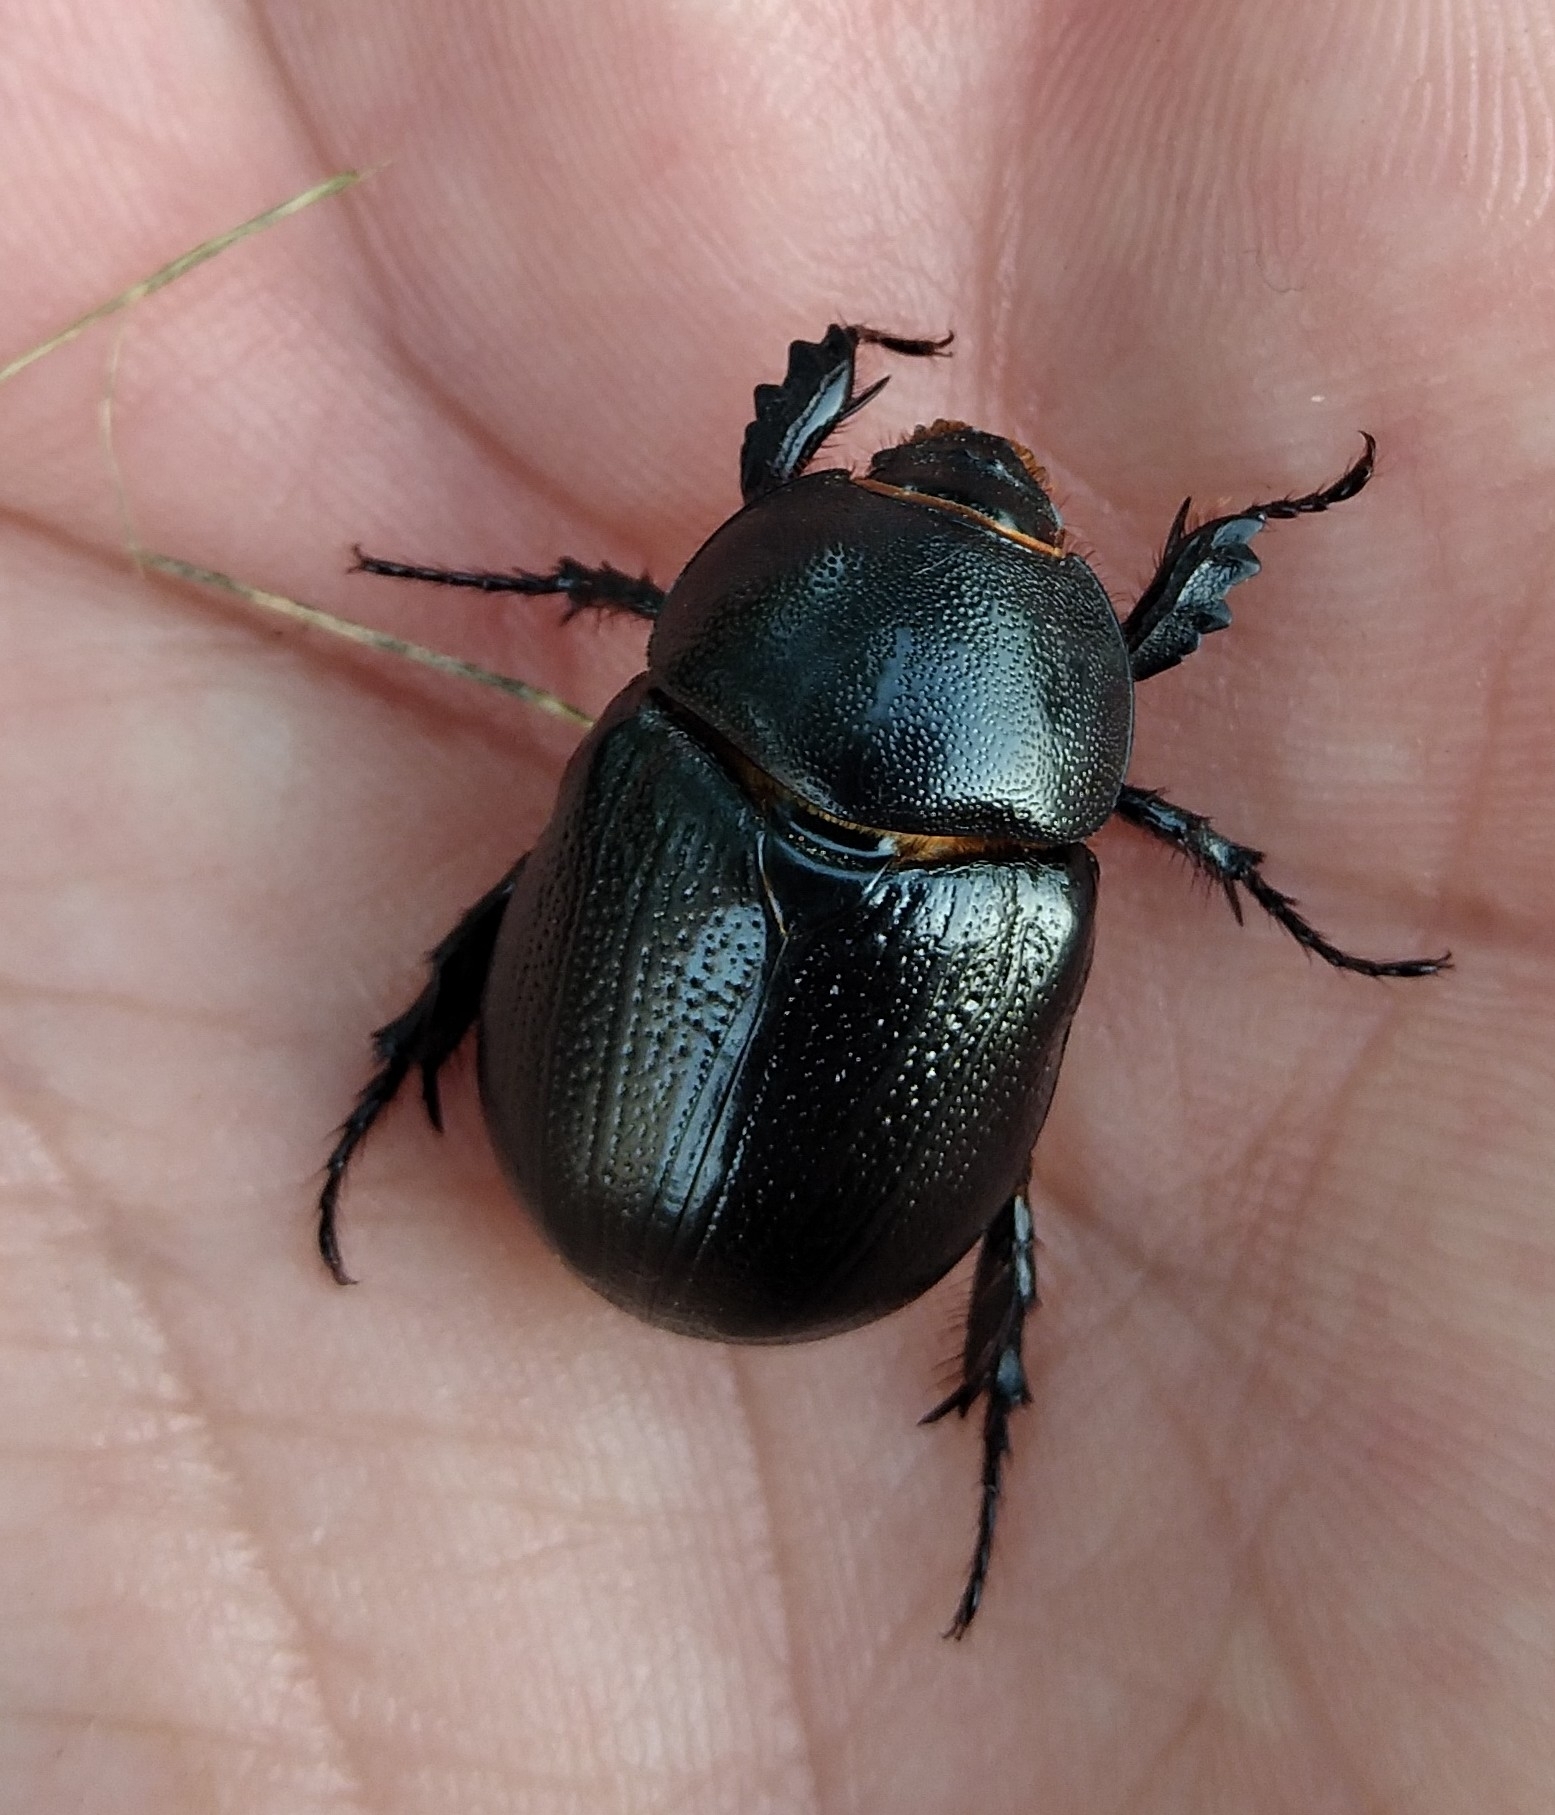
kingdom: Animalia
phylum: Arthropoda
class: Insecta
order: Coleoptera
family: Scarabaeidae
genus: Pentodon
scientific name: Pentodon bidens
